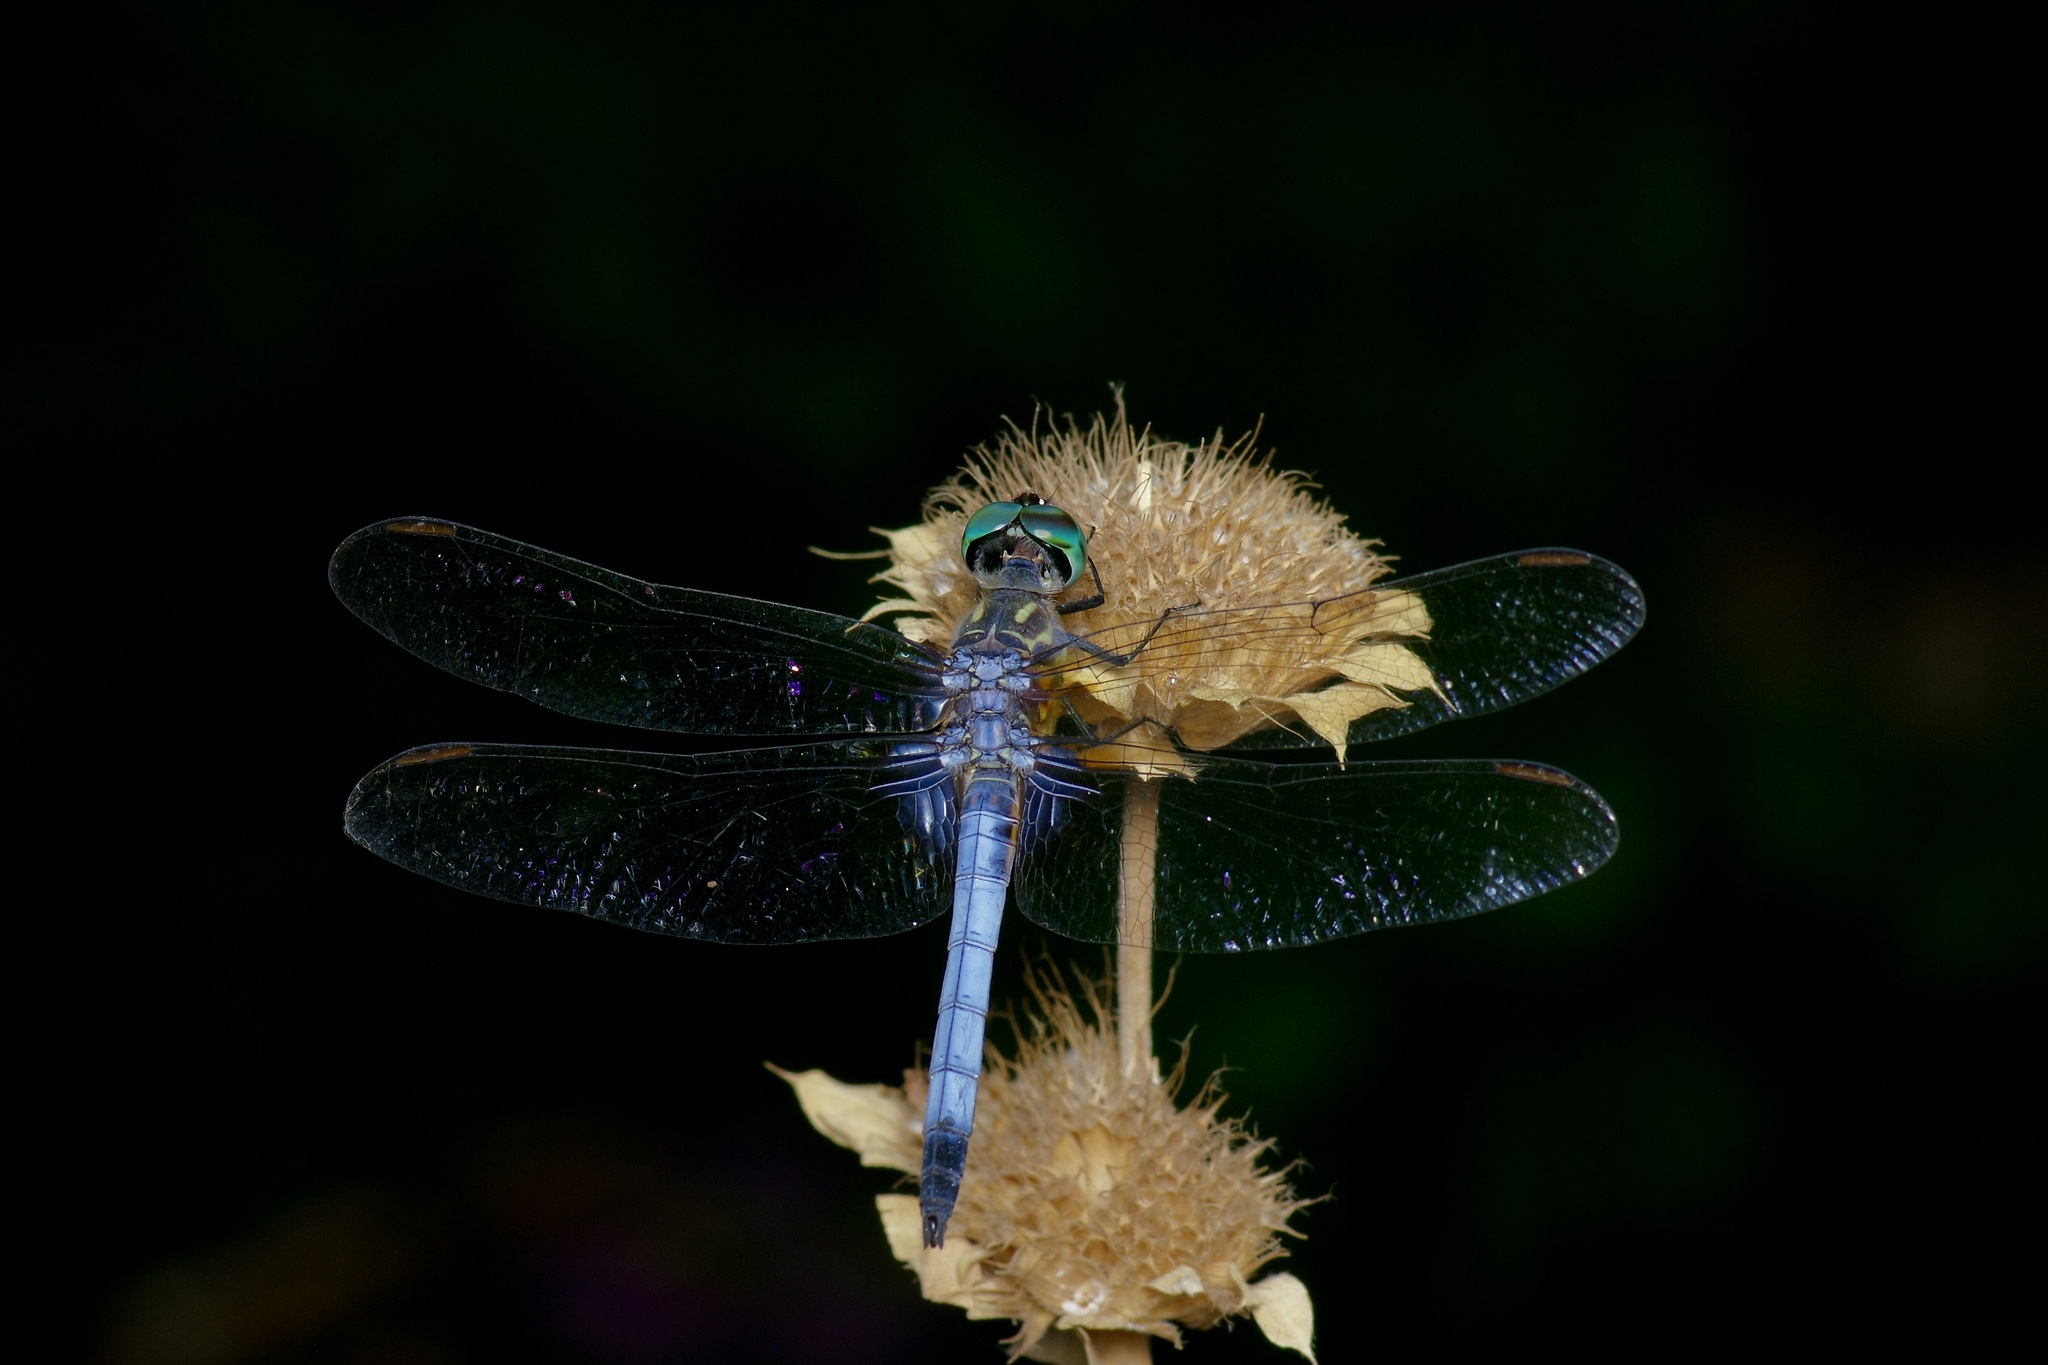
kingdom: Animalia
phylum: Arthropoda
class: Insecta
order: Odonata
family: Libellulidae
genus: Pachydiplax
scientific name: Pachydiplax longipennis
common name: Blue dasher
